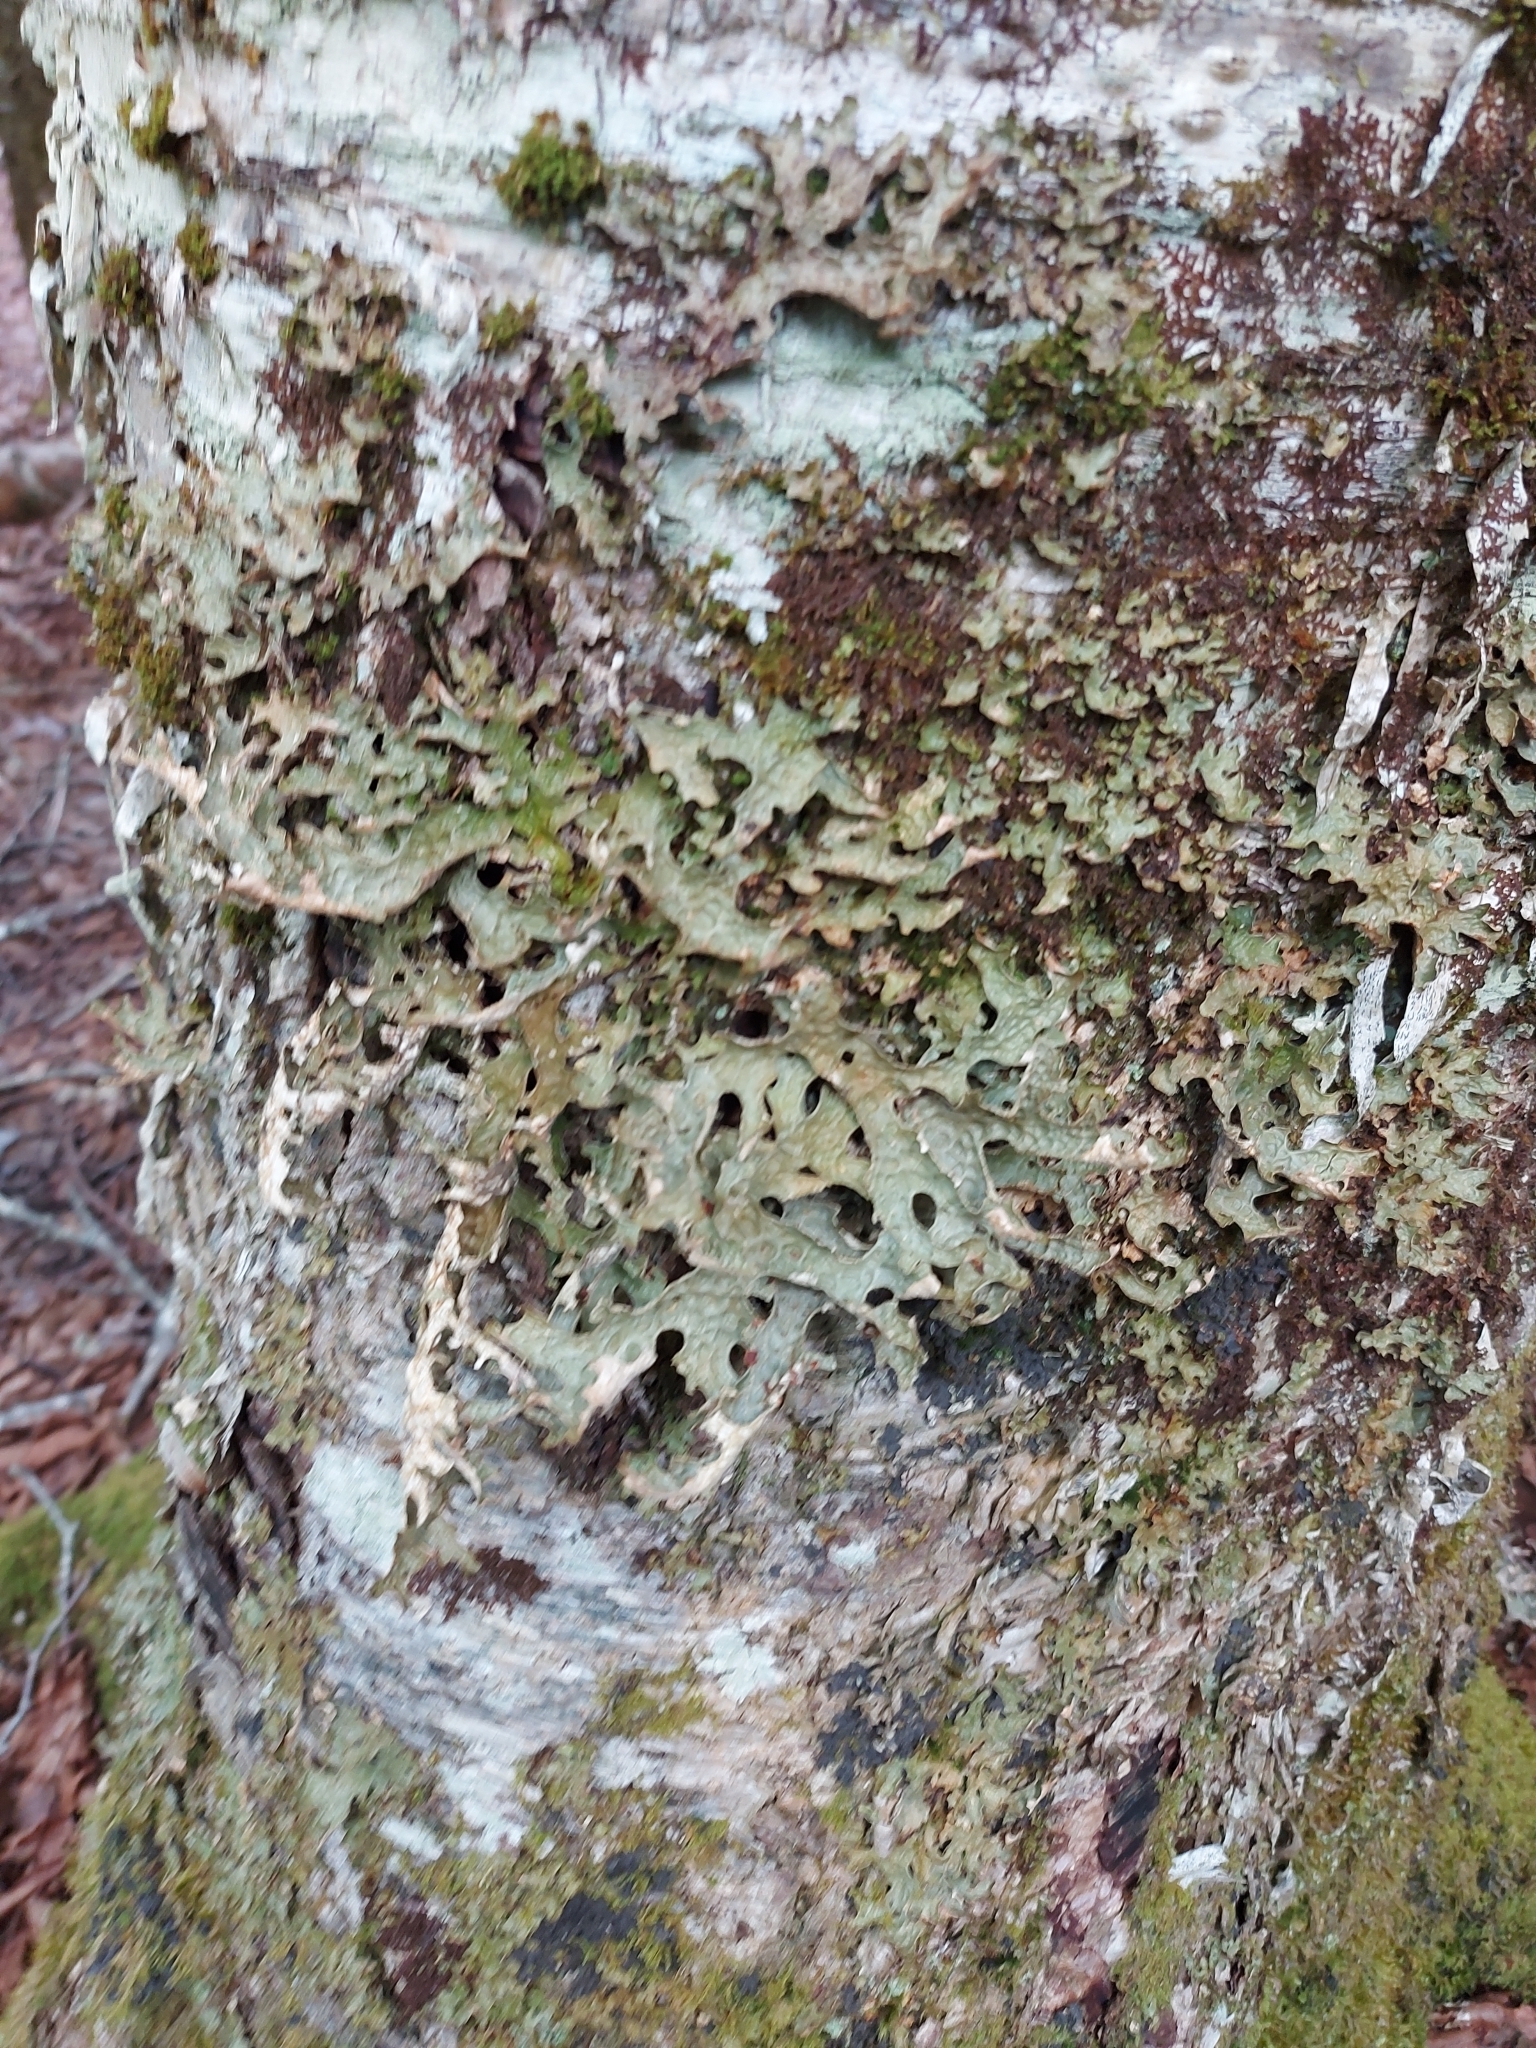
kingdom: Fungi
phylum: Ascomycota
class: Lecanoromycetes
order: Peltigerales
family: Lobariaceae
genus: Lobaria
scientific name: Lobaria pulmonaria
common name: Lungwort
